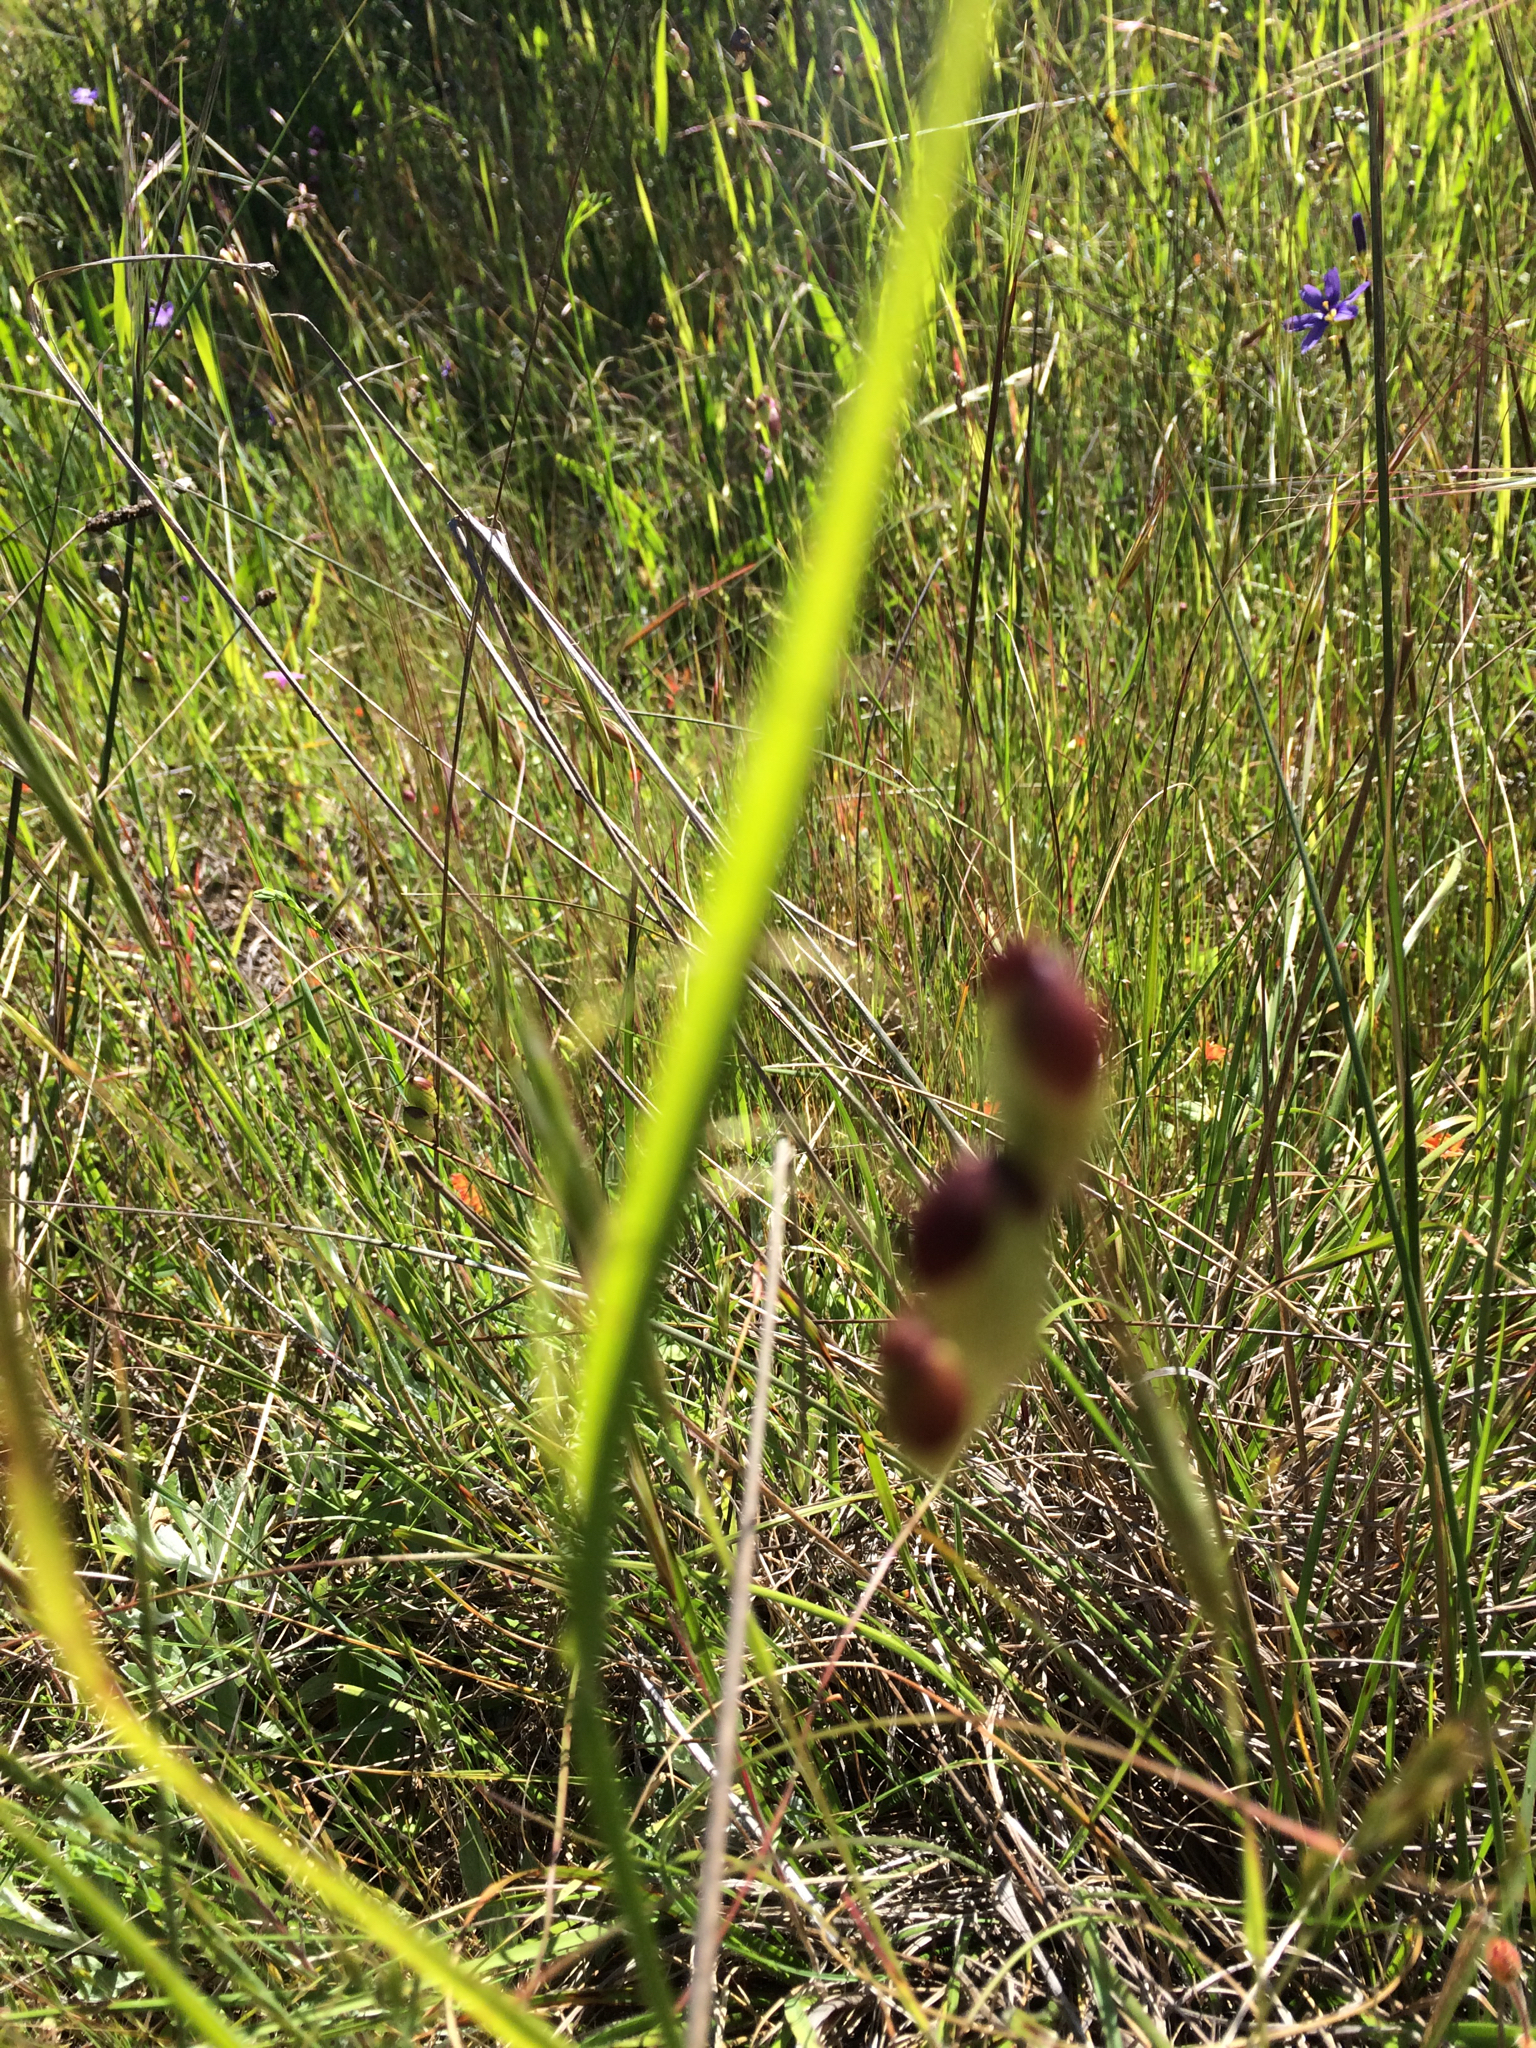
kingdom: Plantae
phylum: Tracheophyta
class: Liliopsida
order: Poales
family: Poaceae
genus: Briza
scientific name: Briza maxima
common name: Big quakinggrass
